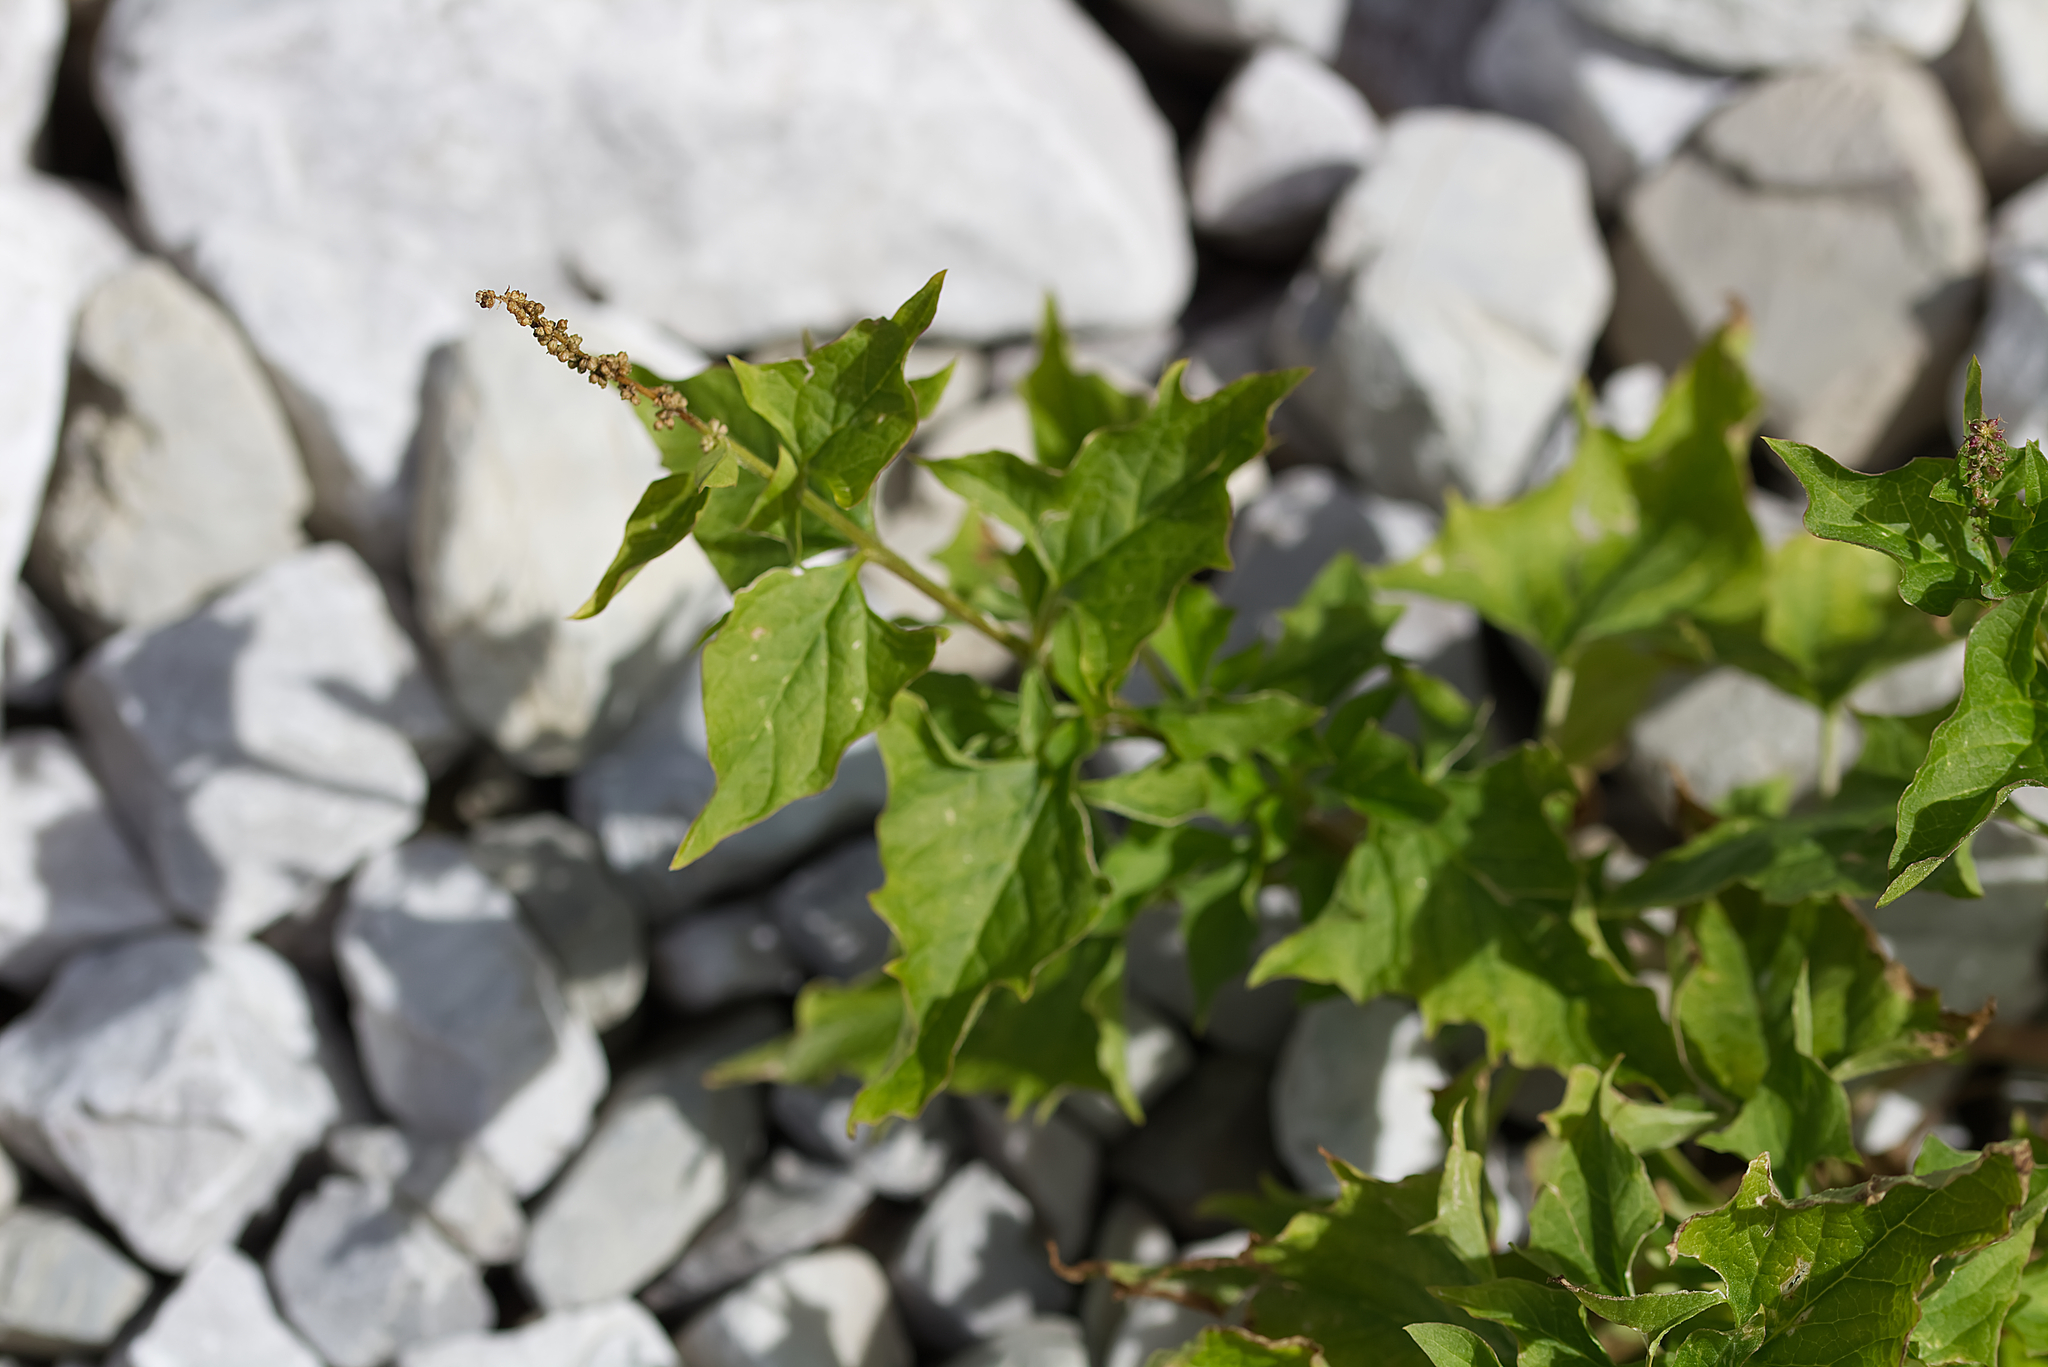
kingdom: Plantae
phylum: Tracheophyta
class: Magnoliopsida
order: Caryophyllales
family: Amaranthaceae
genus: Blitum
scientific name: Blitum bonus-henricus
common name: Good king henry
